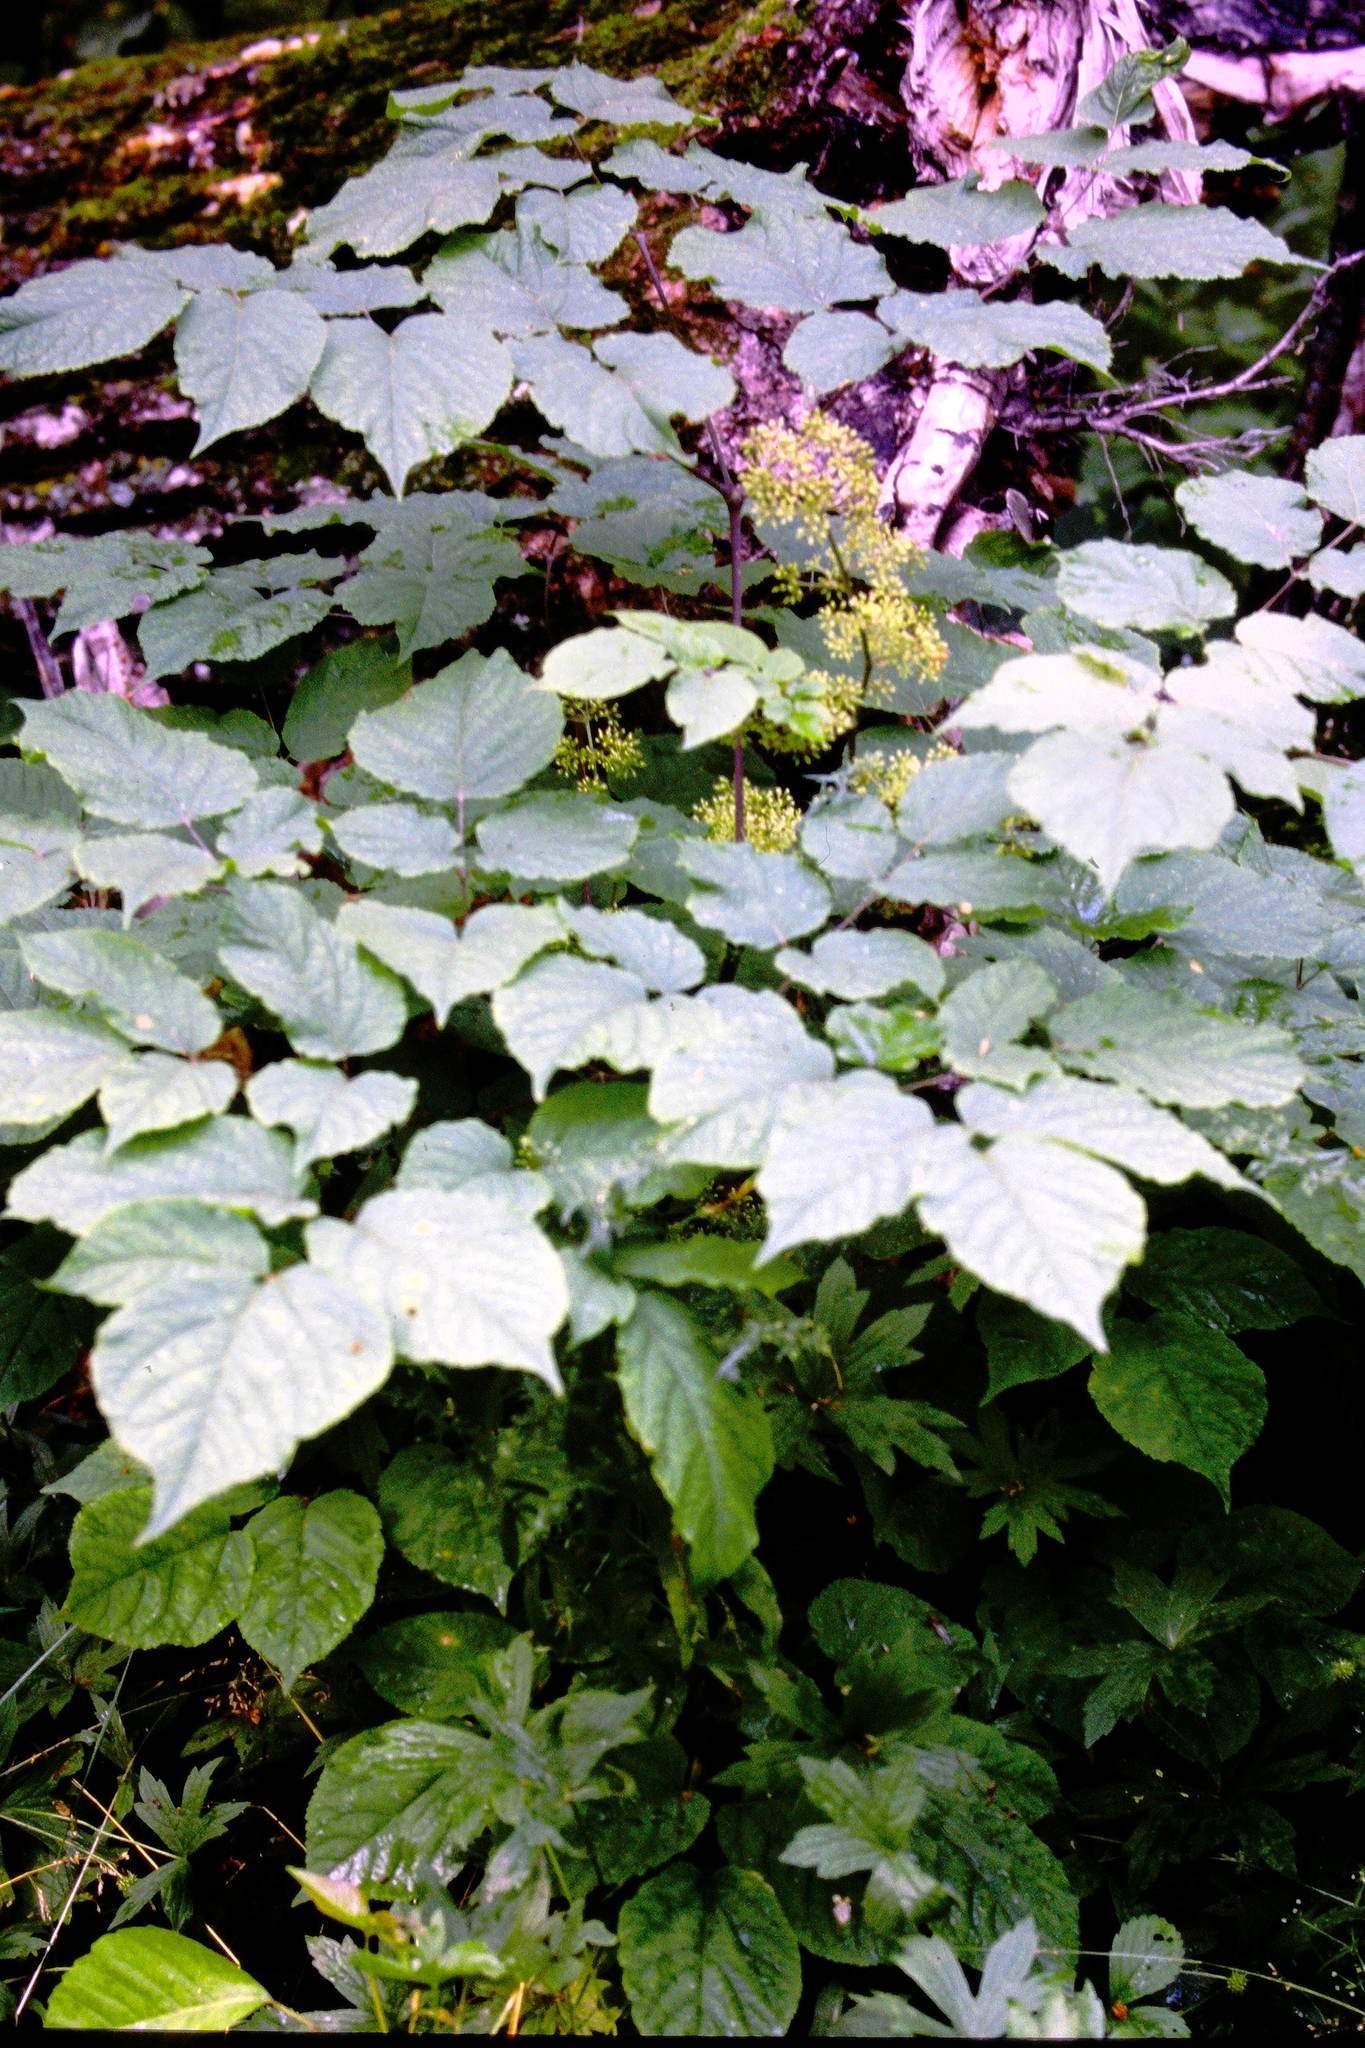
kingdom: Plantae
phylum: Tracheophyta
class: Magnoliopsida
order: Apiales
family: Araliaceae
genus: Aralia
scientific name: Aralia racemosa
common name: American-spikenard
